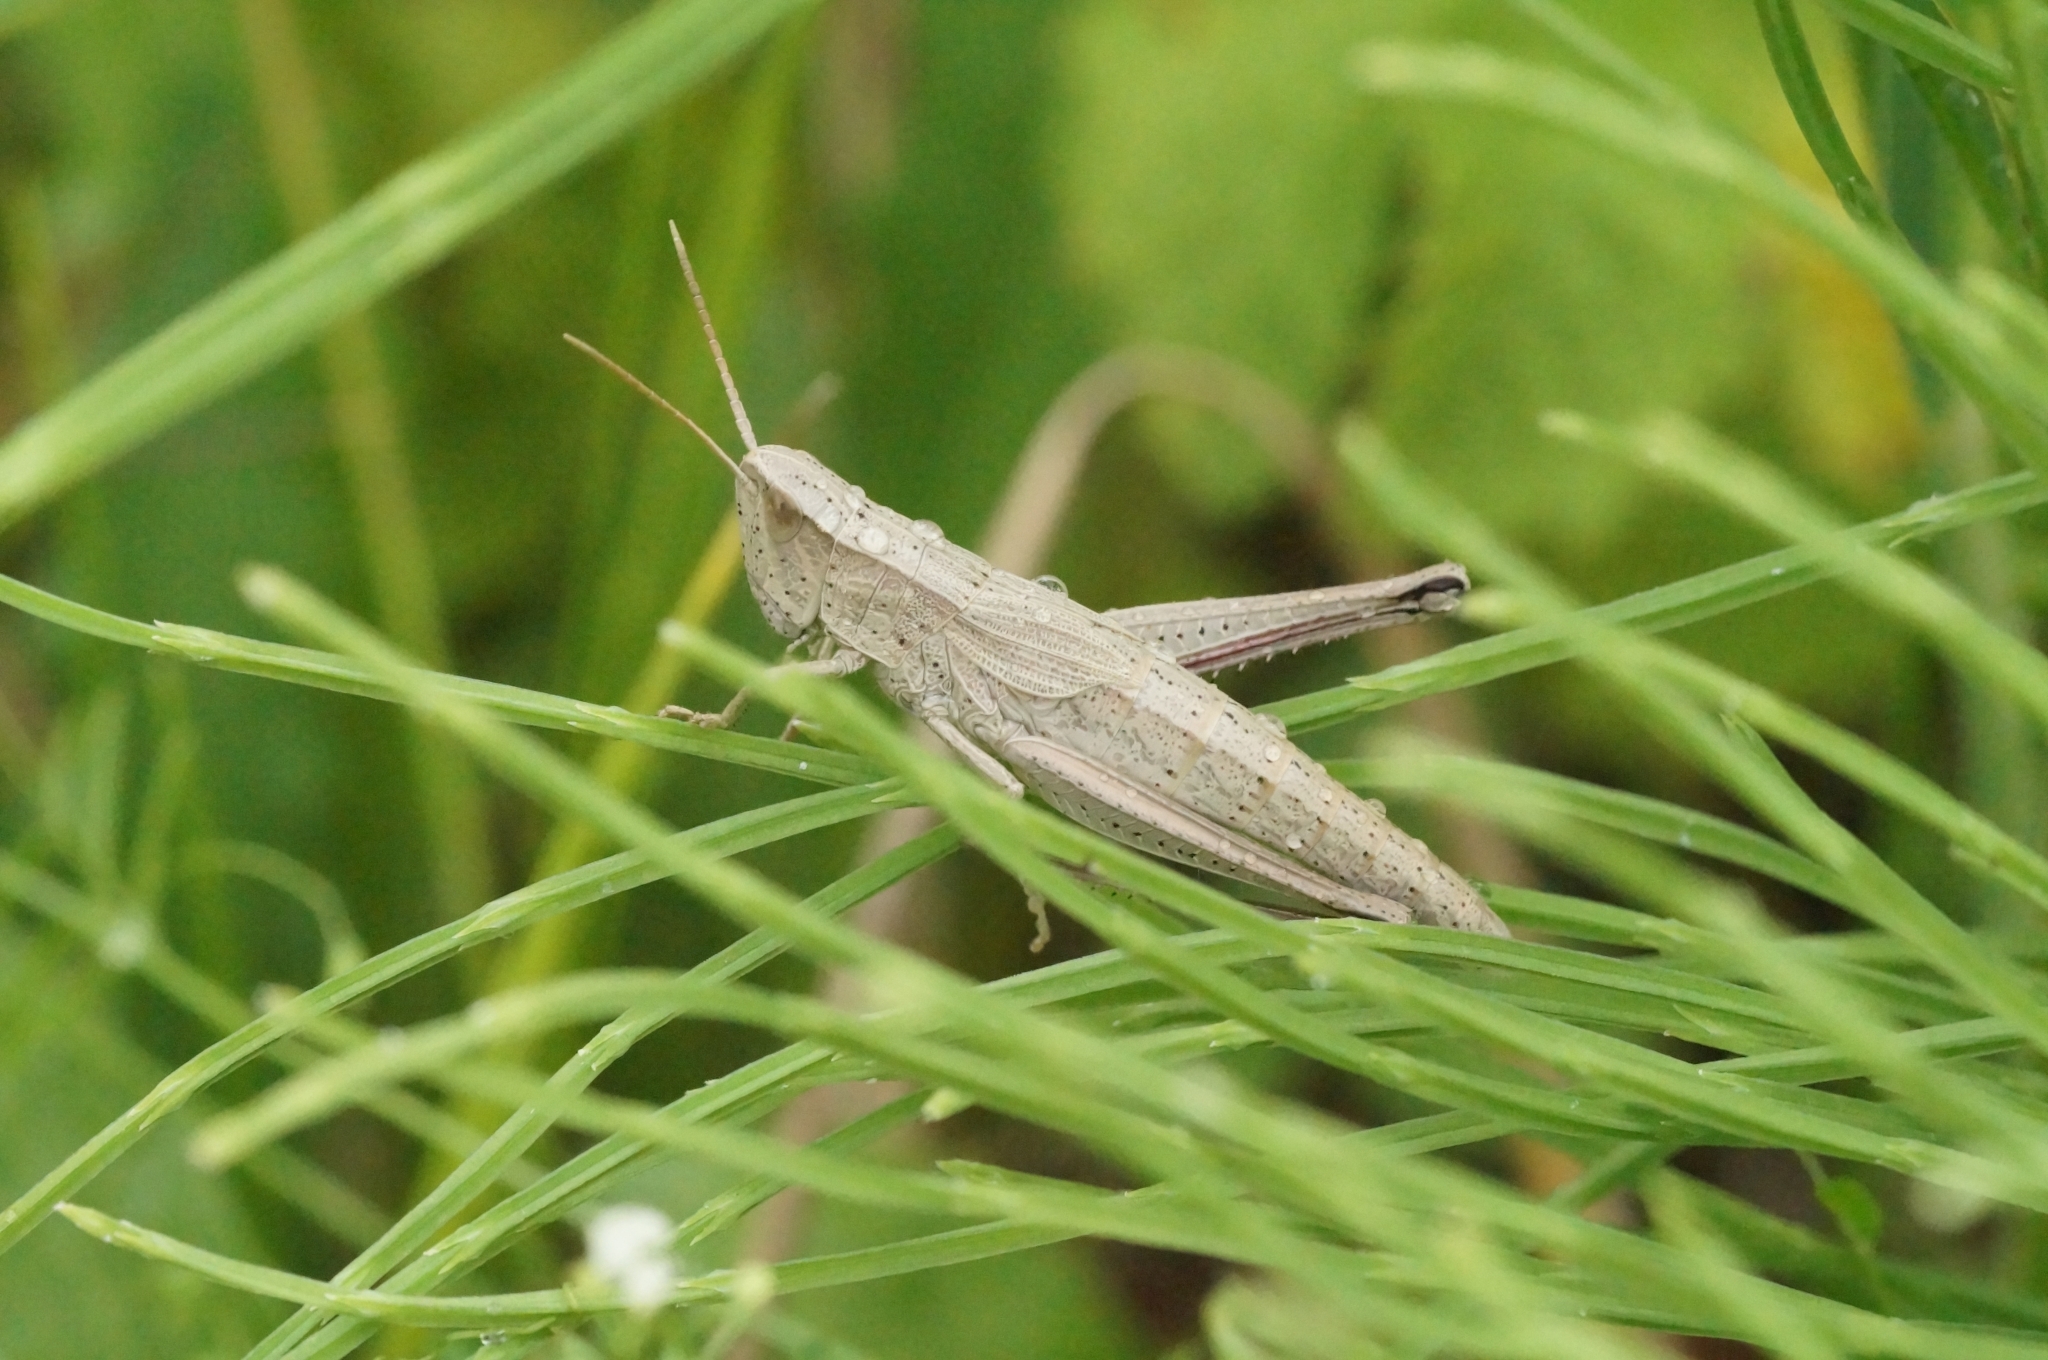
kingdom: Animalia
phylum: Arthropoda
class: Insecta
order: Orthoptera
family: Acrididae
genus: Chrysochraon
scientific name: Chrysochraon dispar
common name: Large gold grasshopper
